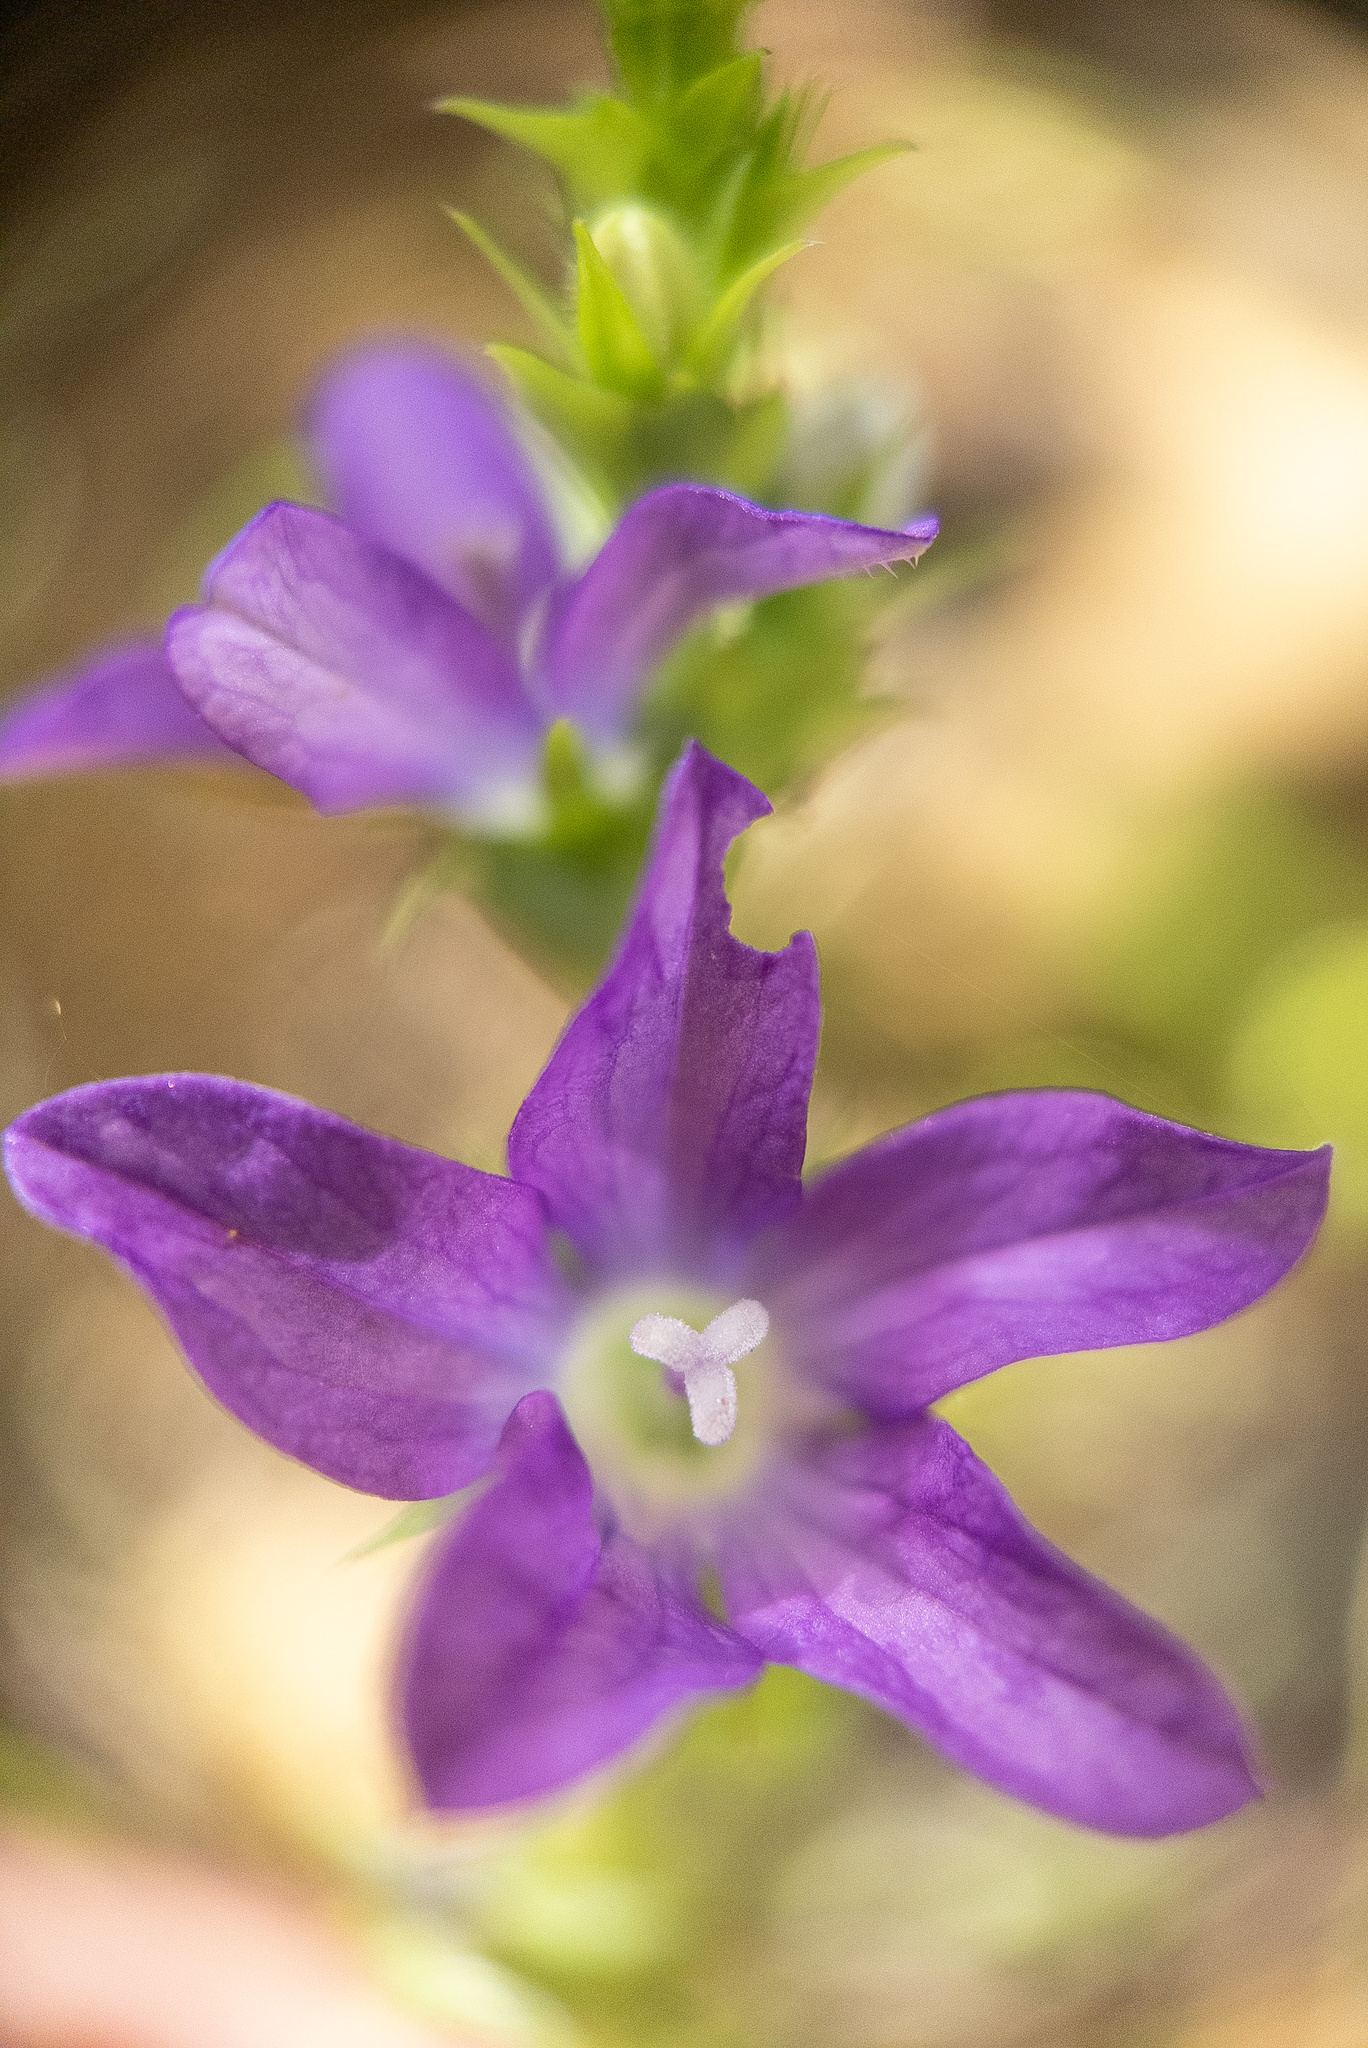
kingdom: Plantae
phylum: Tracheophyta
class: Magnoliopsida
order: Asterales
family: Campanulaceae
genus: Triodanis
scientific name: Triodanis perfoliata
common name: Clasping venus' looking-glass
